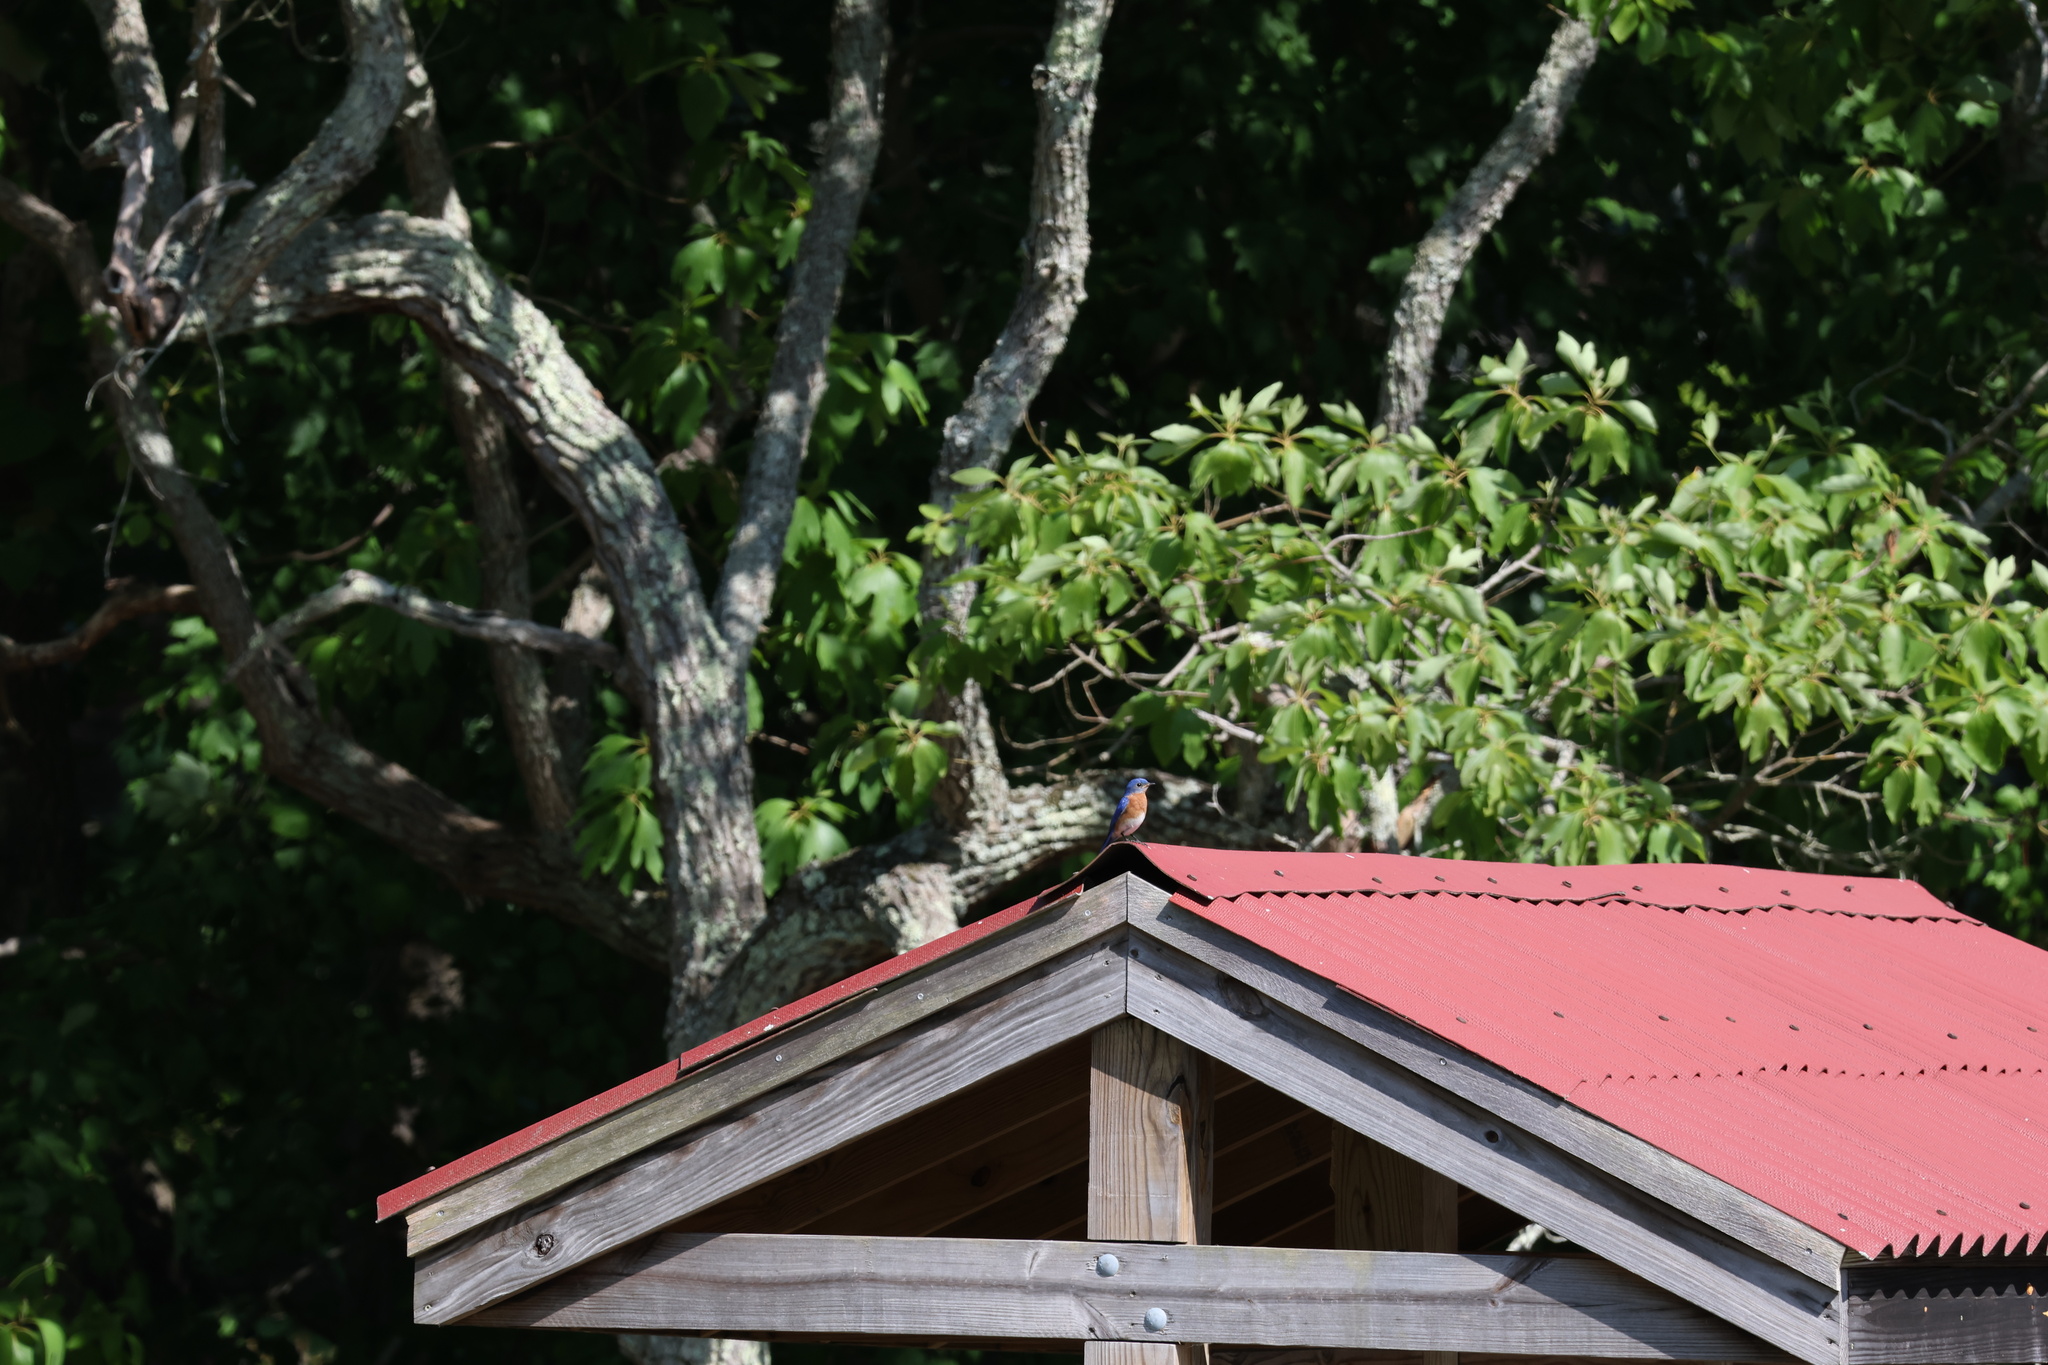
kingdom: Animalia
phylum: Chordata
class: Aves
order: Passeriformes
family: Turdidae
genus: Sialia
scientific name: Sialia sialis
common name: Eastern bluebird
